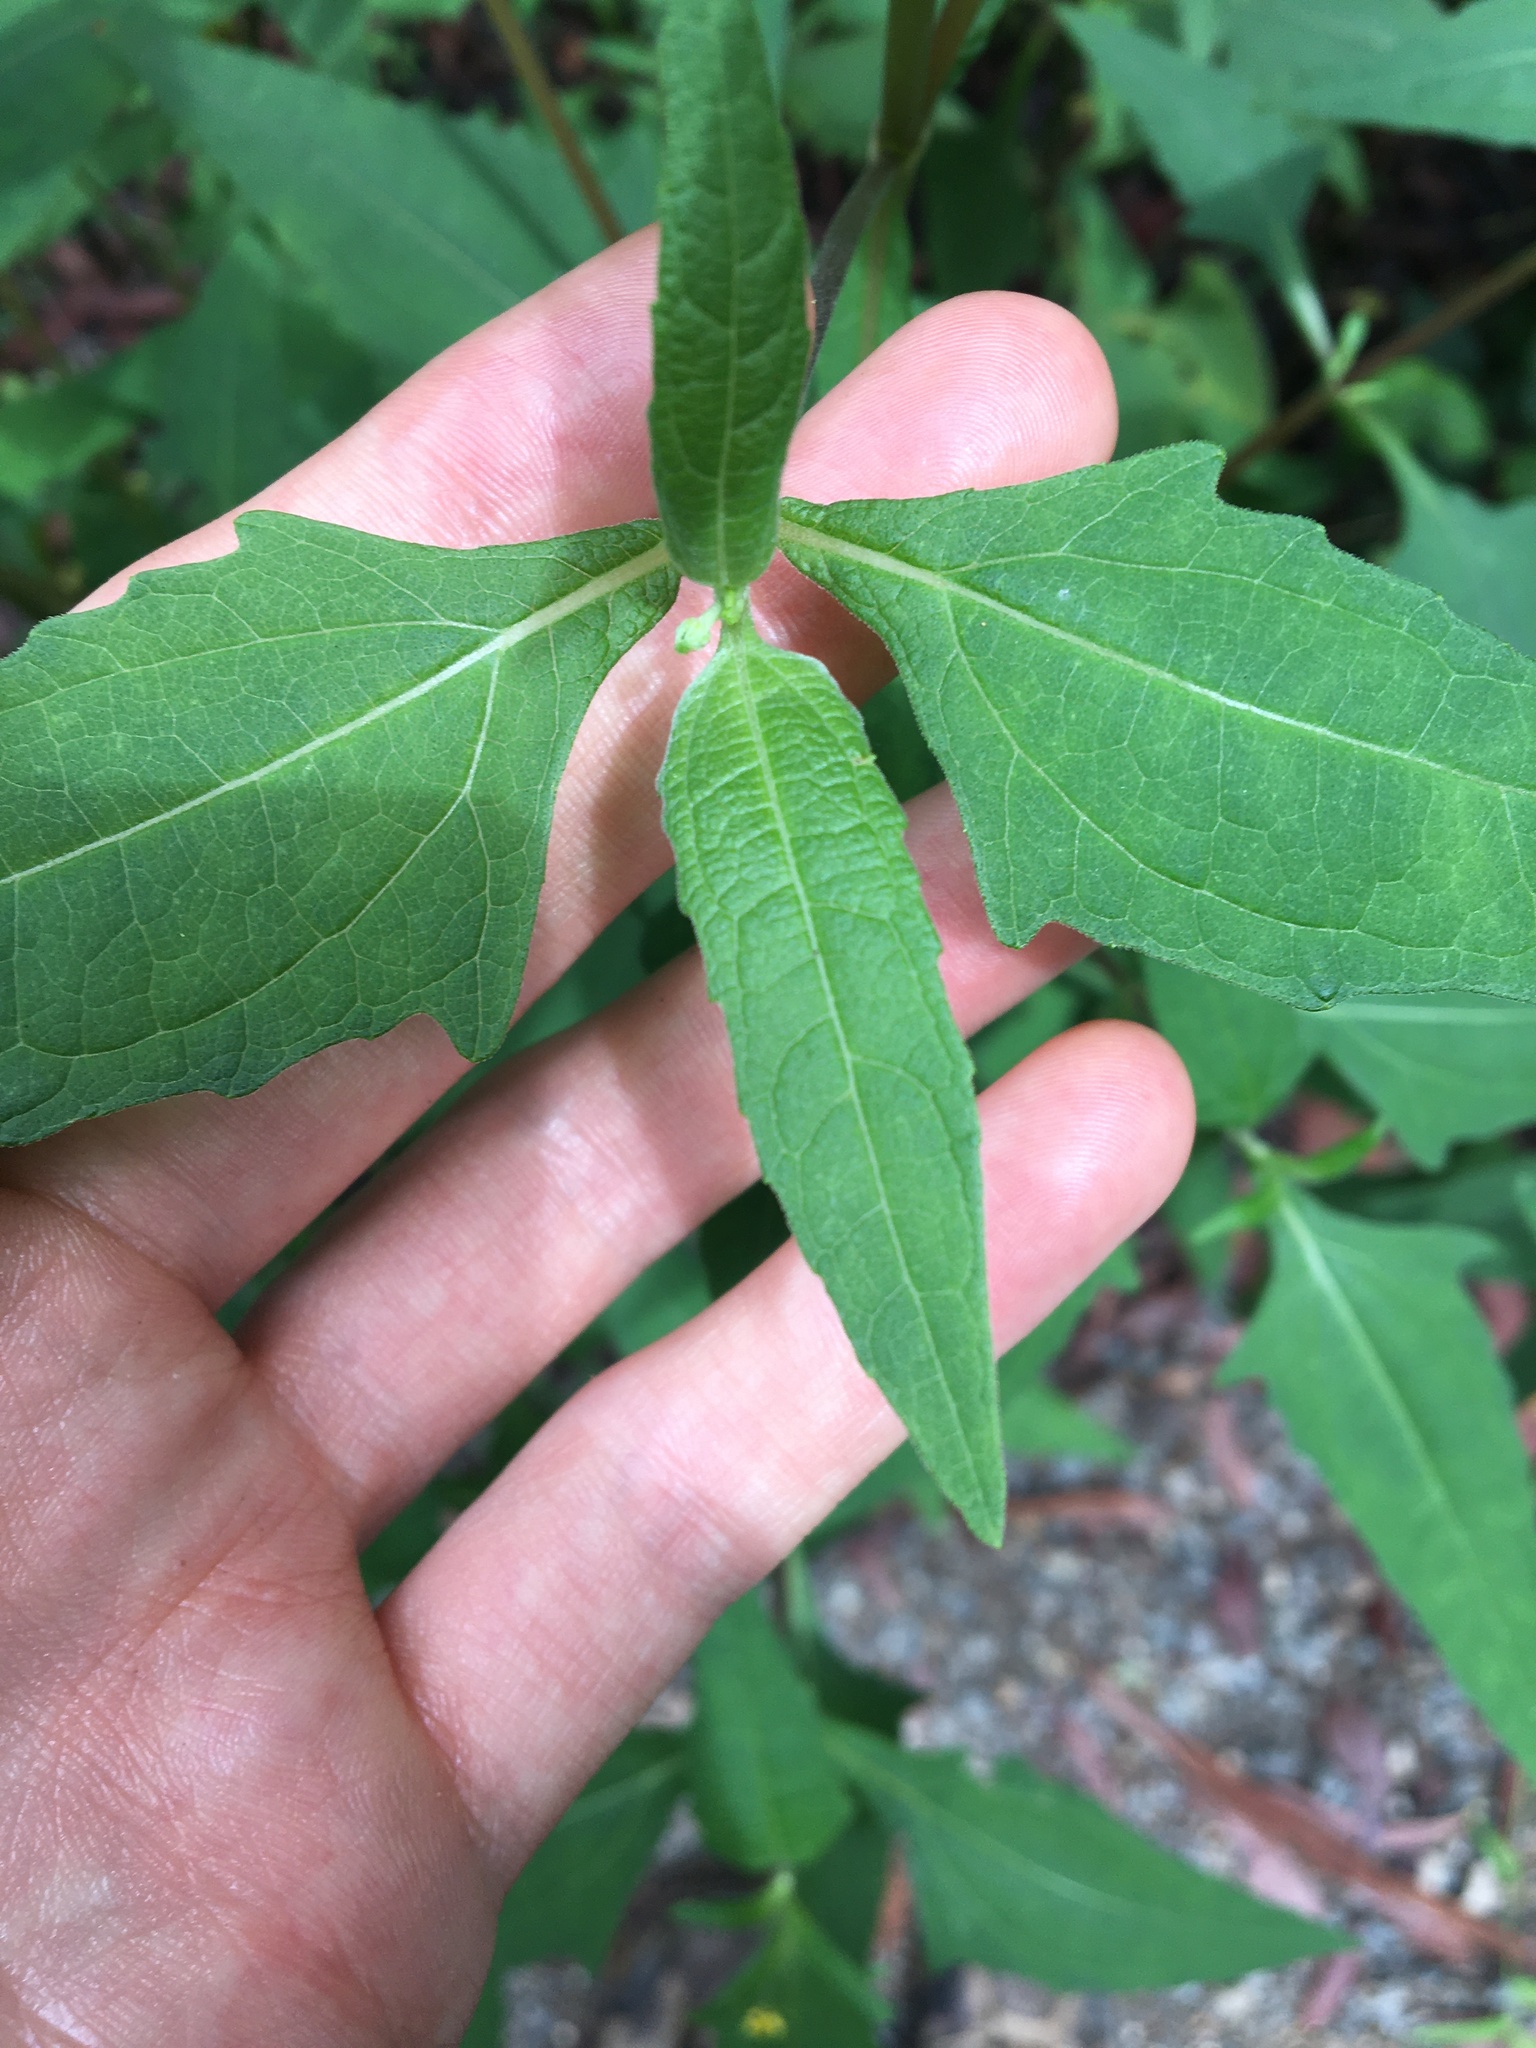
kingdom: Plantae
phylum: Tracheophyta
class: Magnoliopsida
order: Asterales
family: Asteraceae
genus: Sigesbeckia
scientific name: Sigesbeckia orientalis
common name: Eastern st paul's-wort
